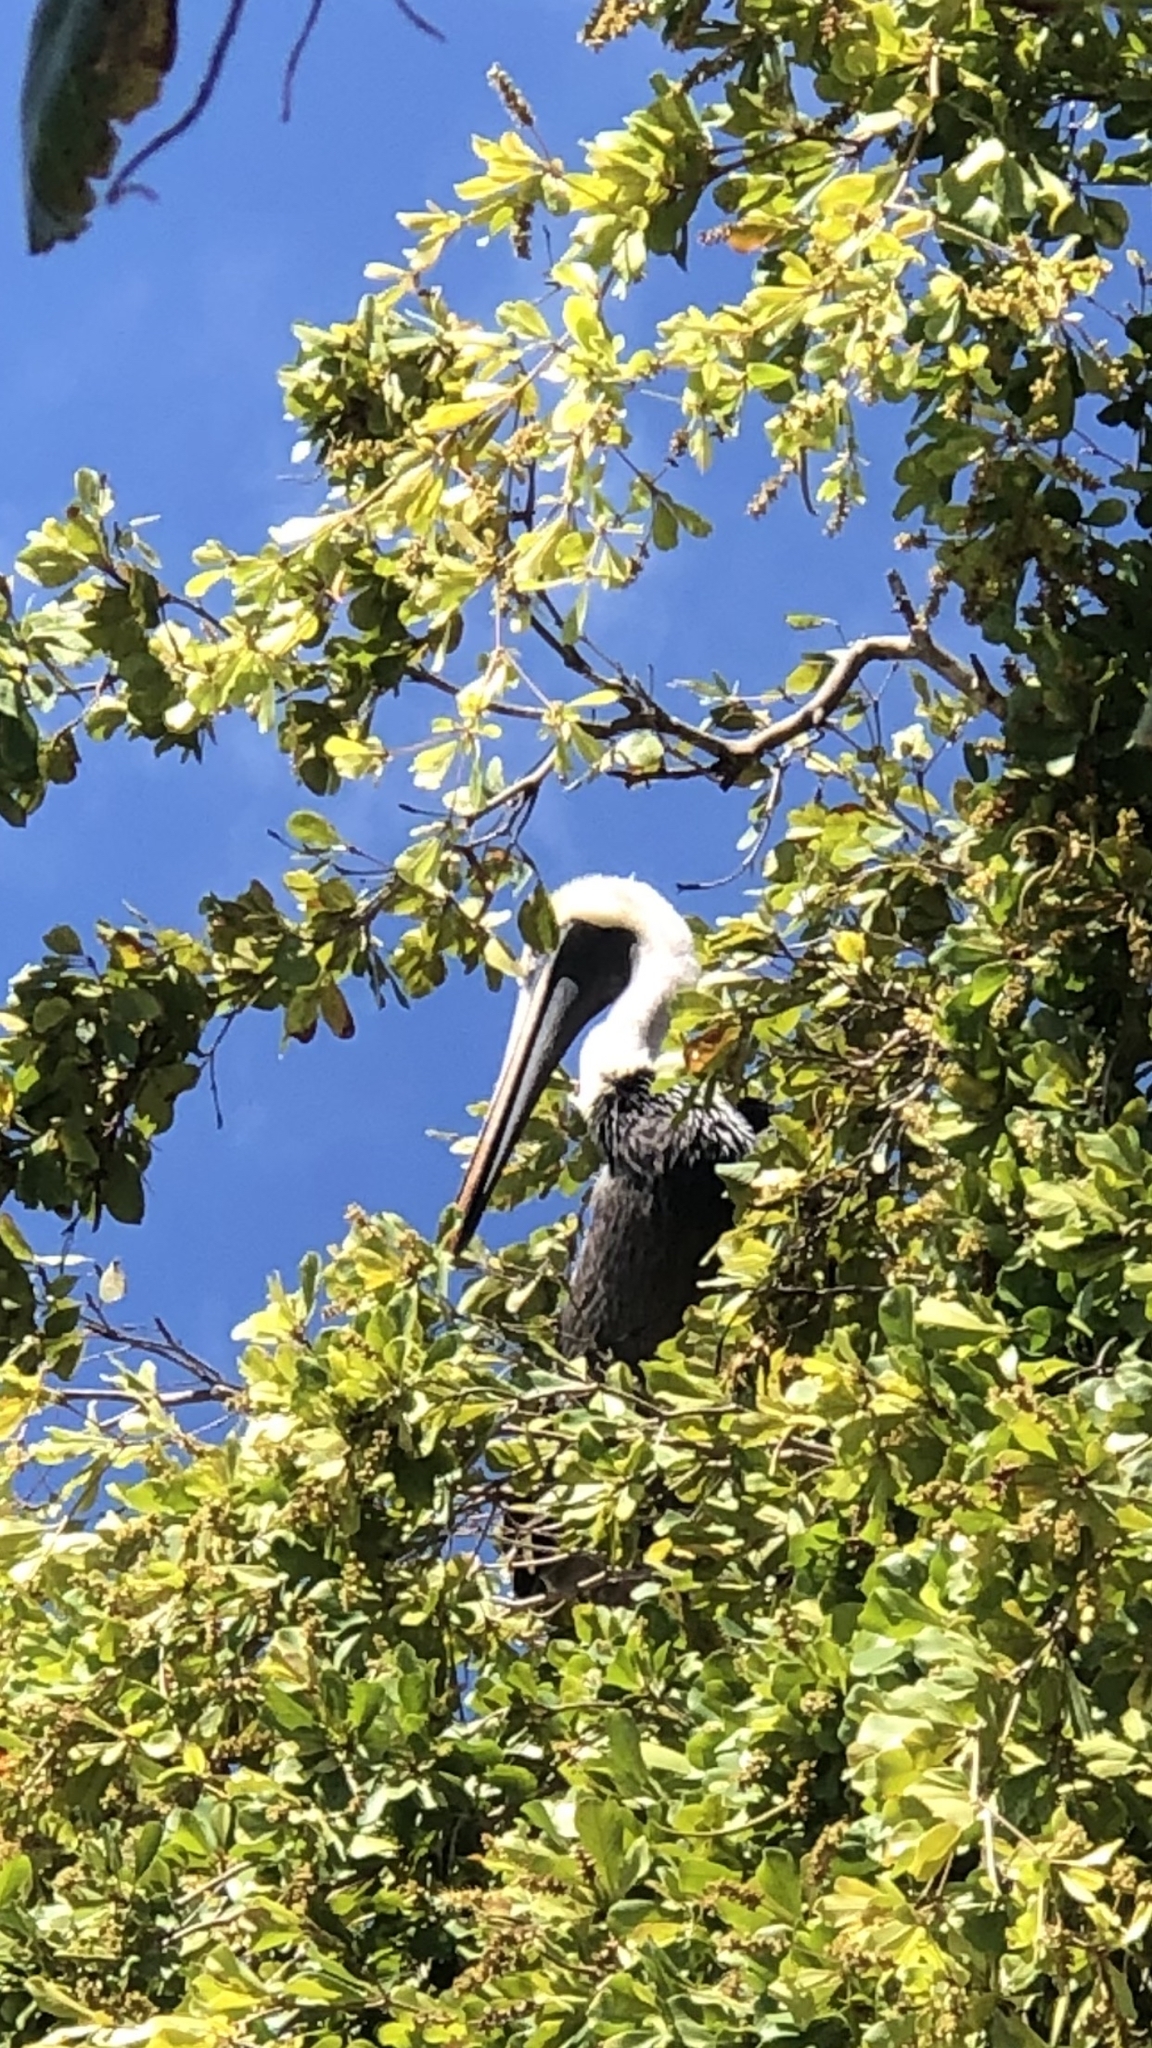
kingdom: Animalia
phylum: Chordata
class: Aves
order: Pelecaniformes
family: Pelecanidae
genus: Pelecanus
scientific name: Pelecanus occidentalis
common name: Brown pelican
